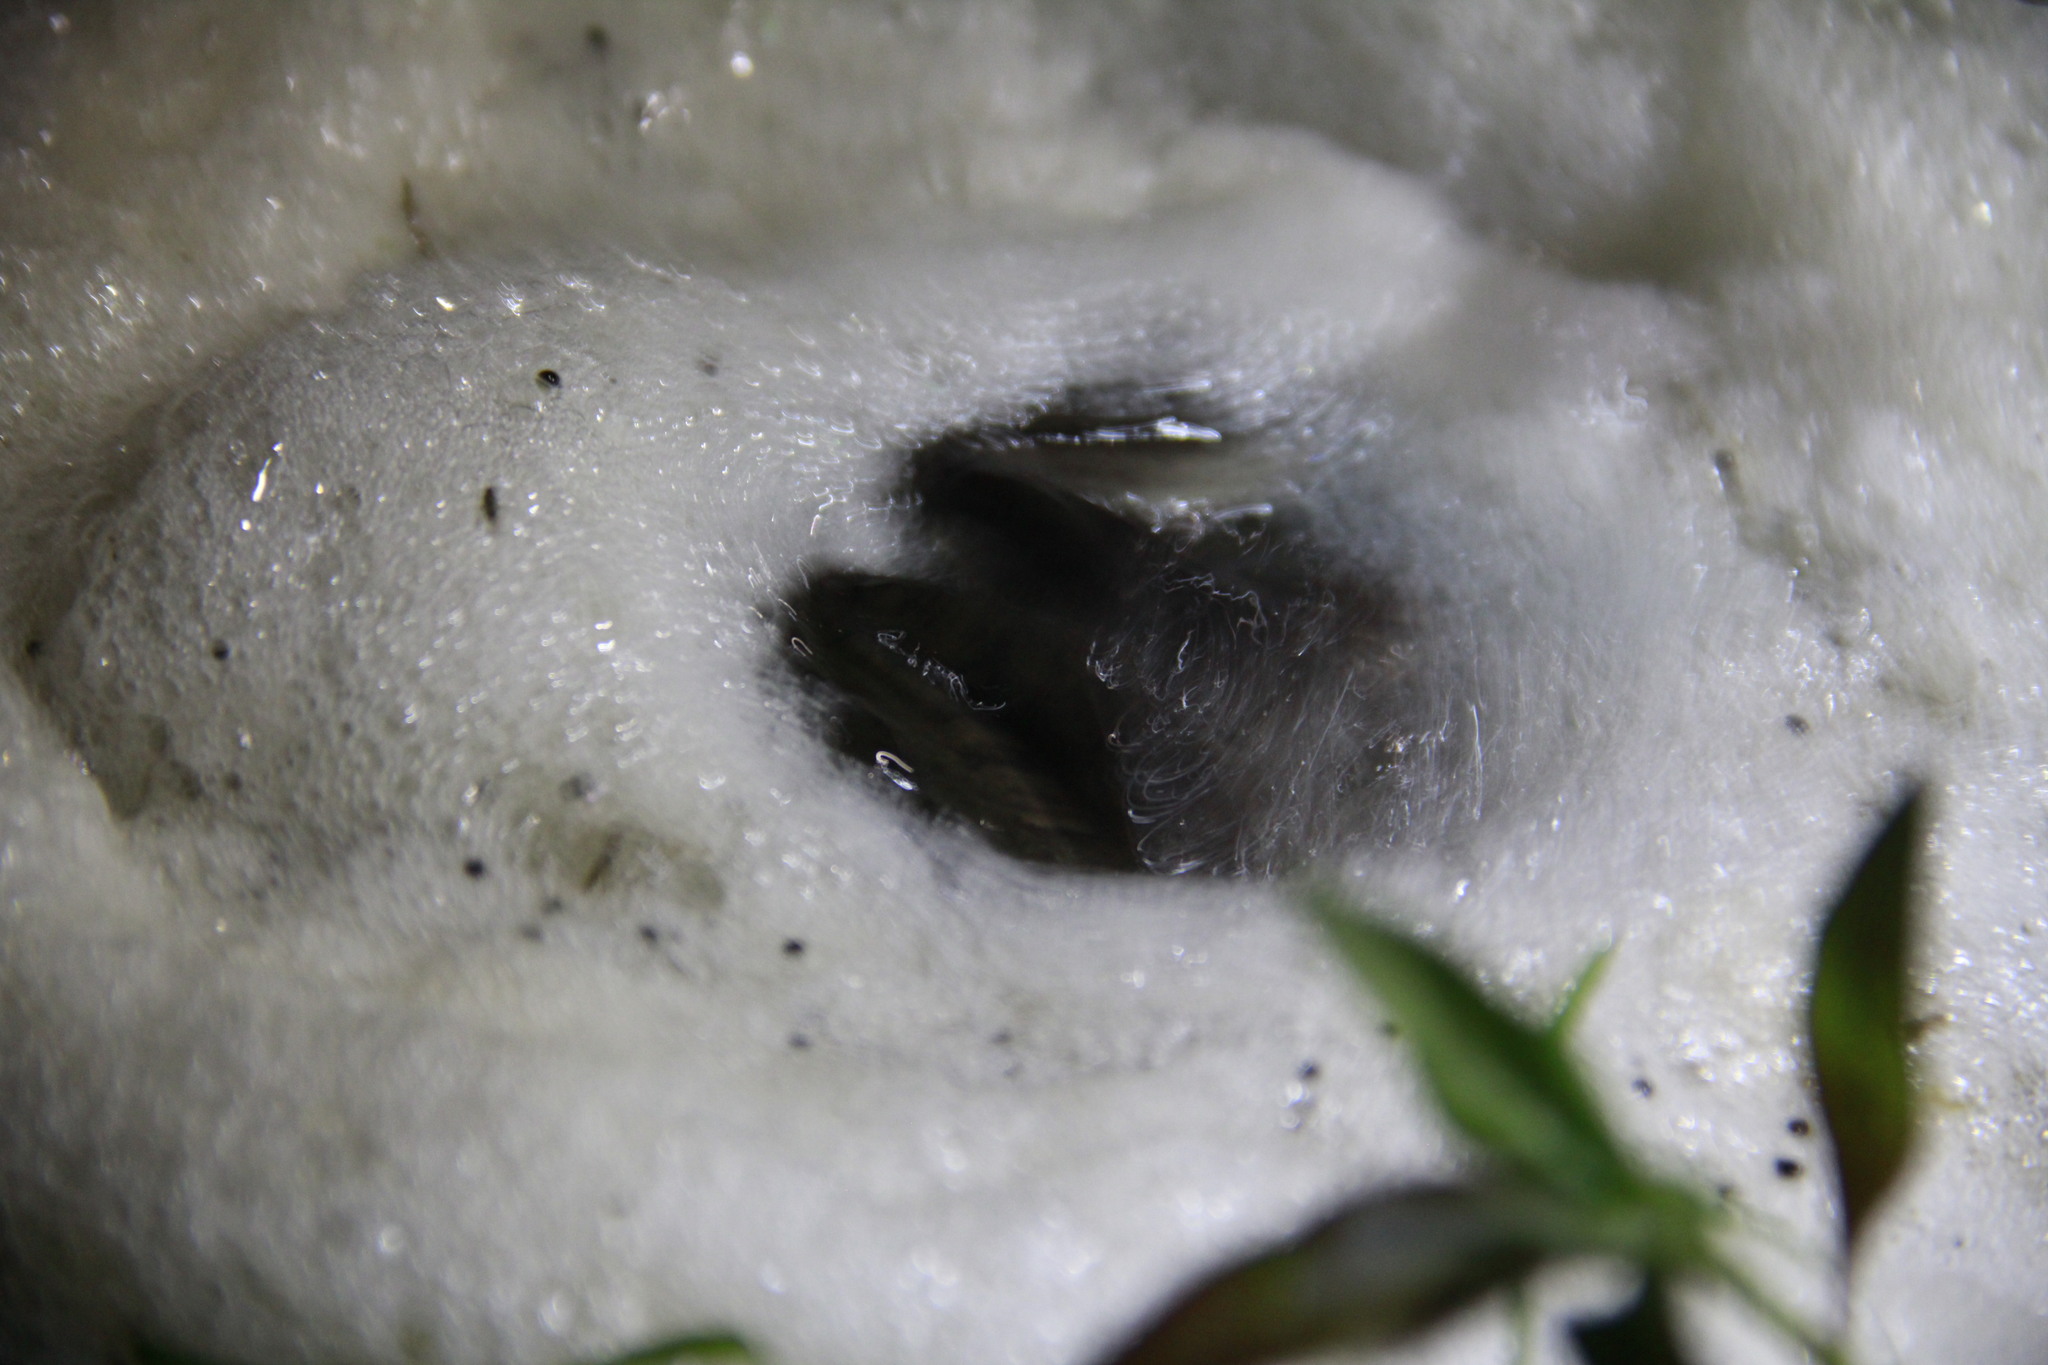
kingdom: Animalia
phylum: Chordata
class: Amphibia
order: Anura
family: Leptodactylidae
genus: Leptodactylus
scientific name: Leptodactylus luctator
